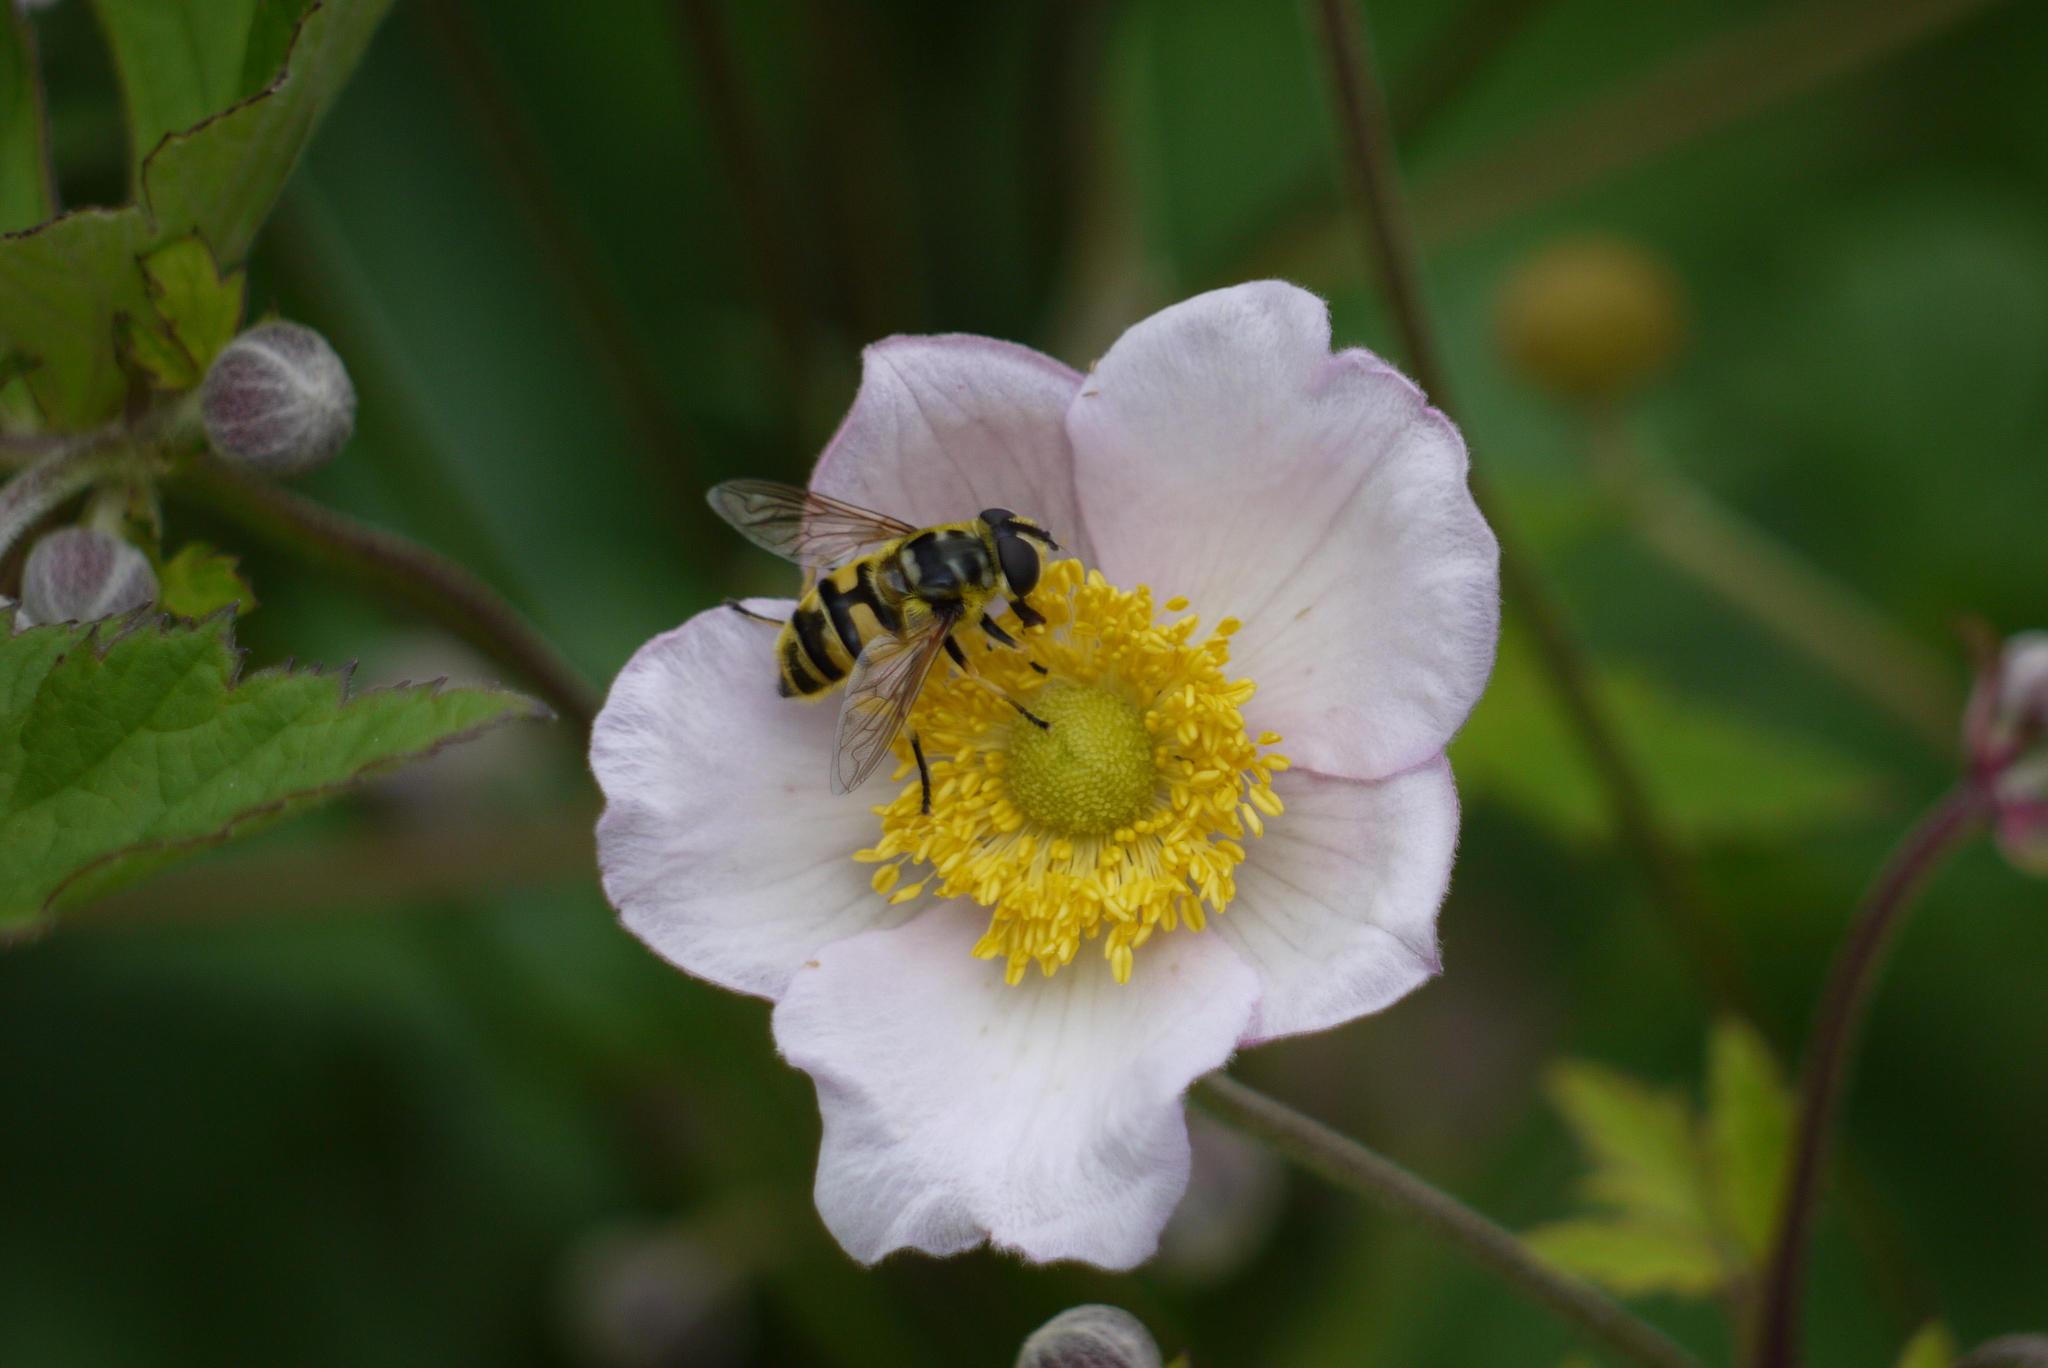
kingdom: Animalia
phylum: Arthropoda
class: Insecta
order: Diptera
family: Syrphidae
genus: Myathropa
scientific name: Myathropa florea
